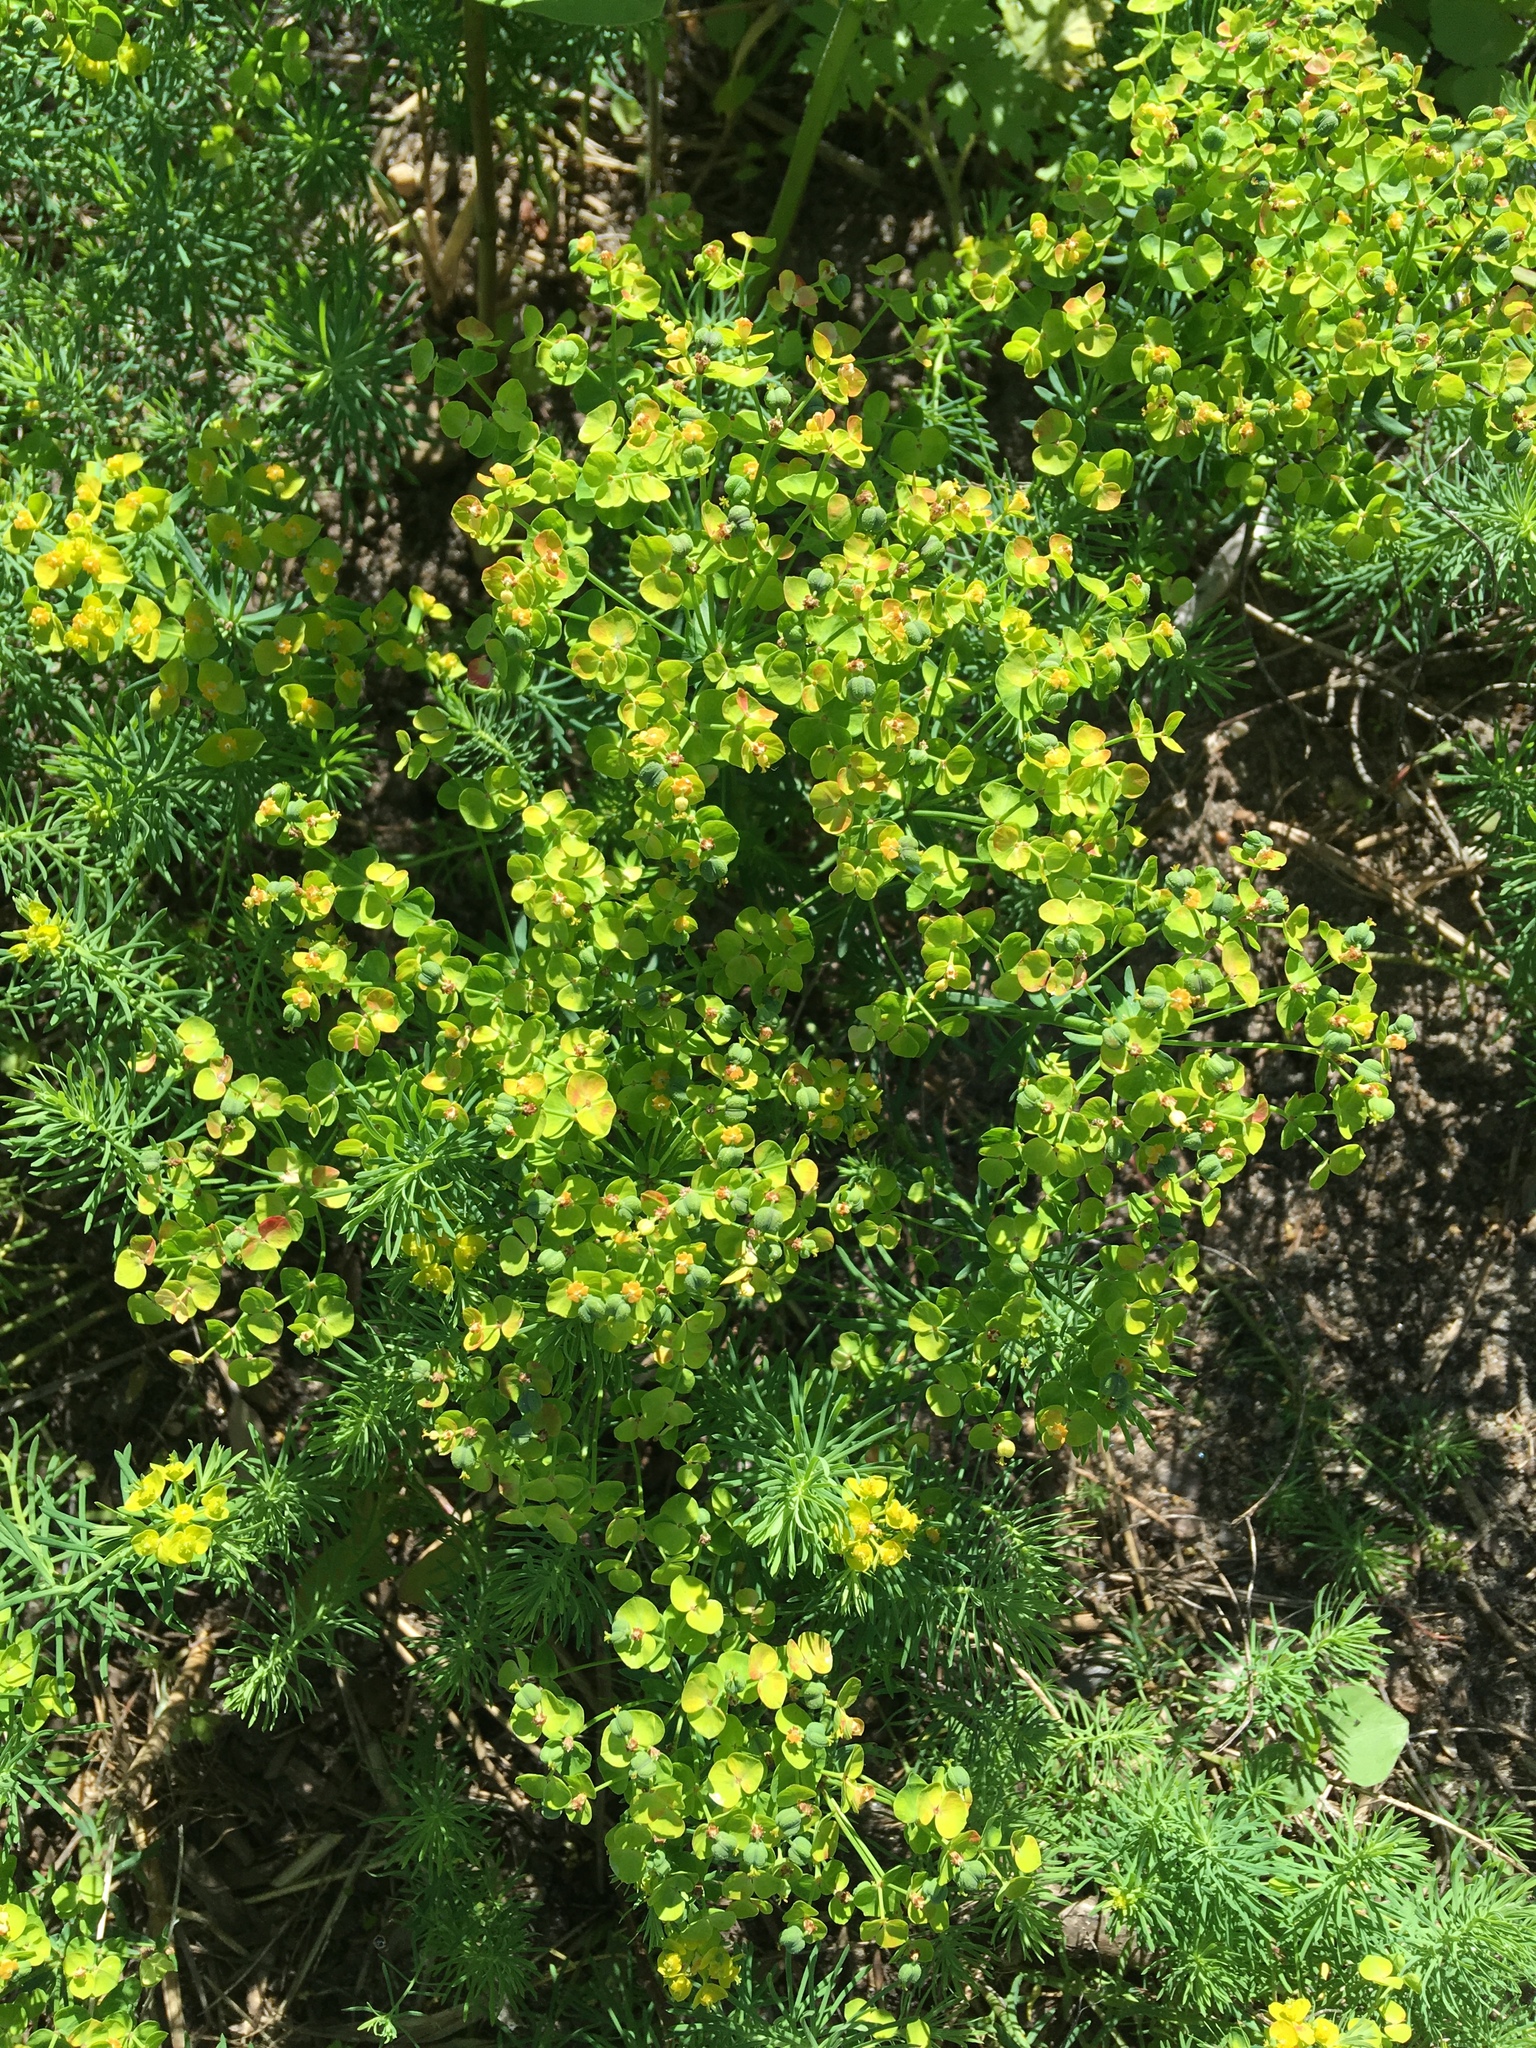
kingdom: Plantae
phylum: Tracheophyta
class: Magnoliopsida
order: Malpighiales
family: Euphorbiaceae
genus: Euphorbia
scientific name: Euphorbia cyparissias
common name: Cypress spurge
